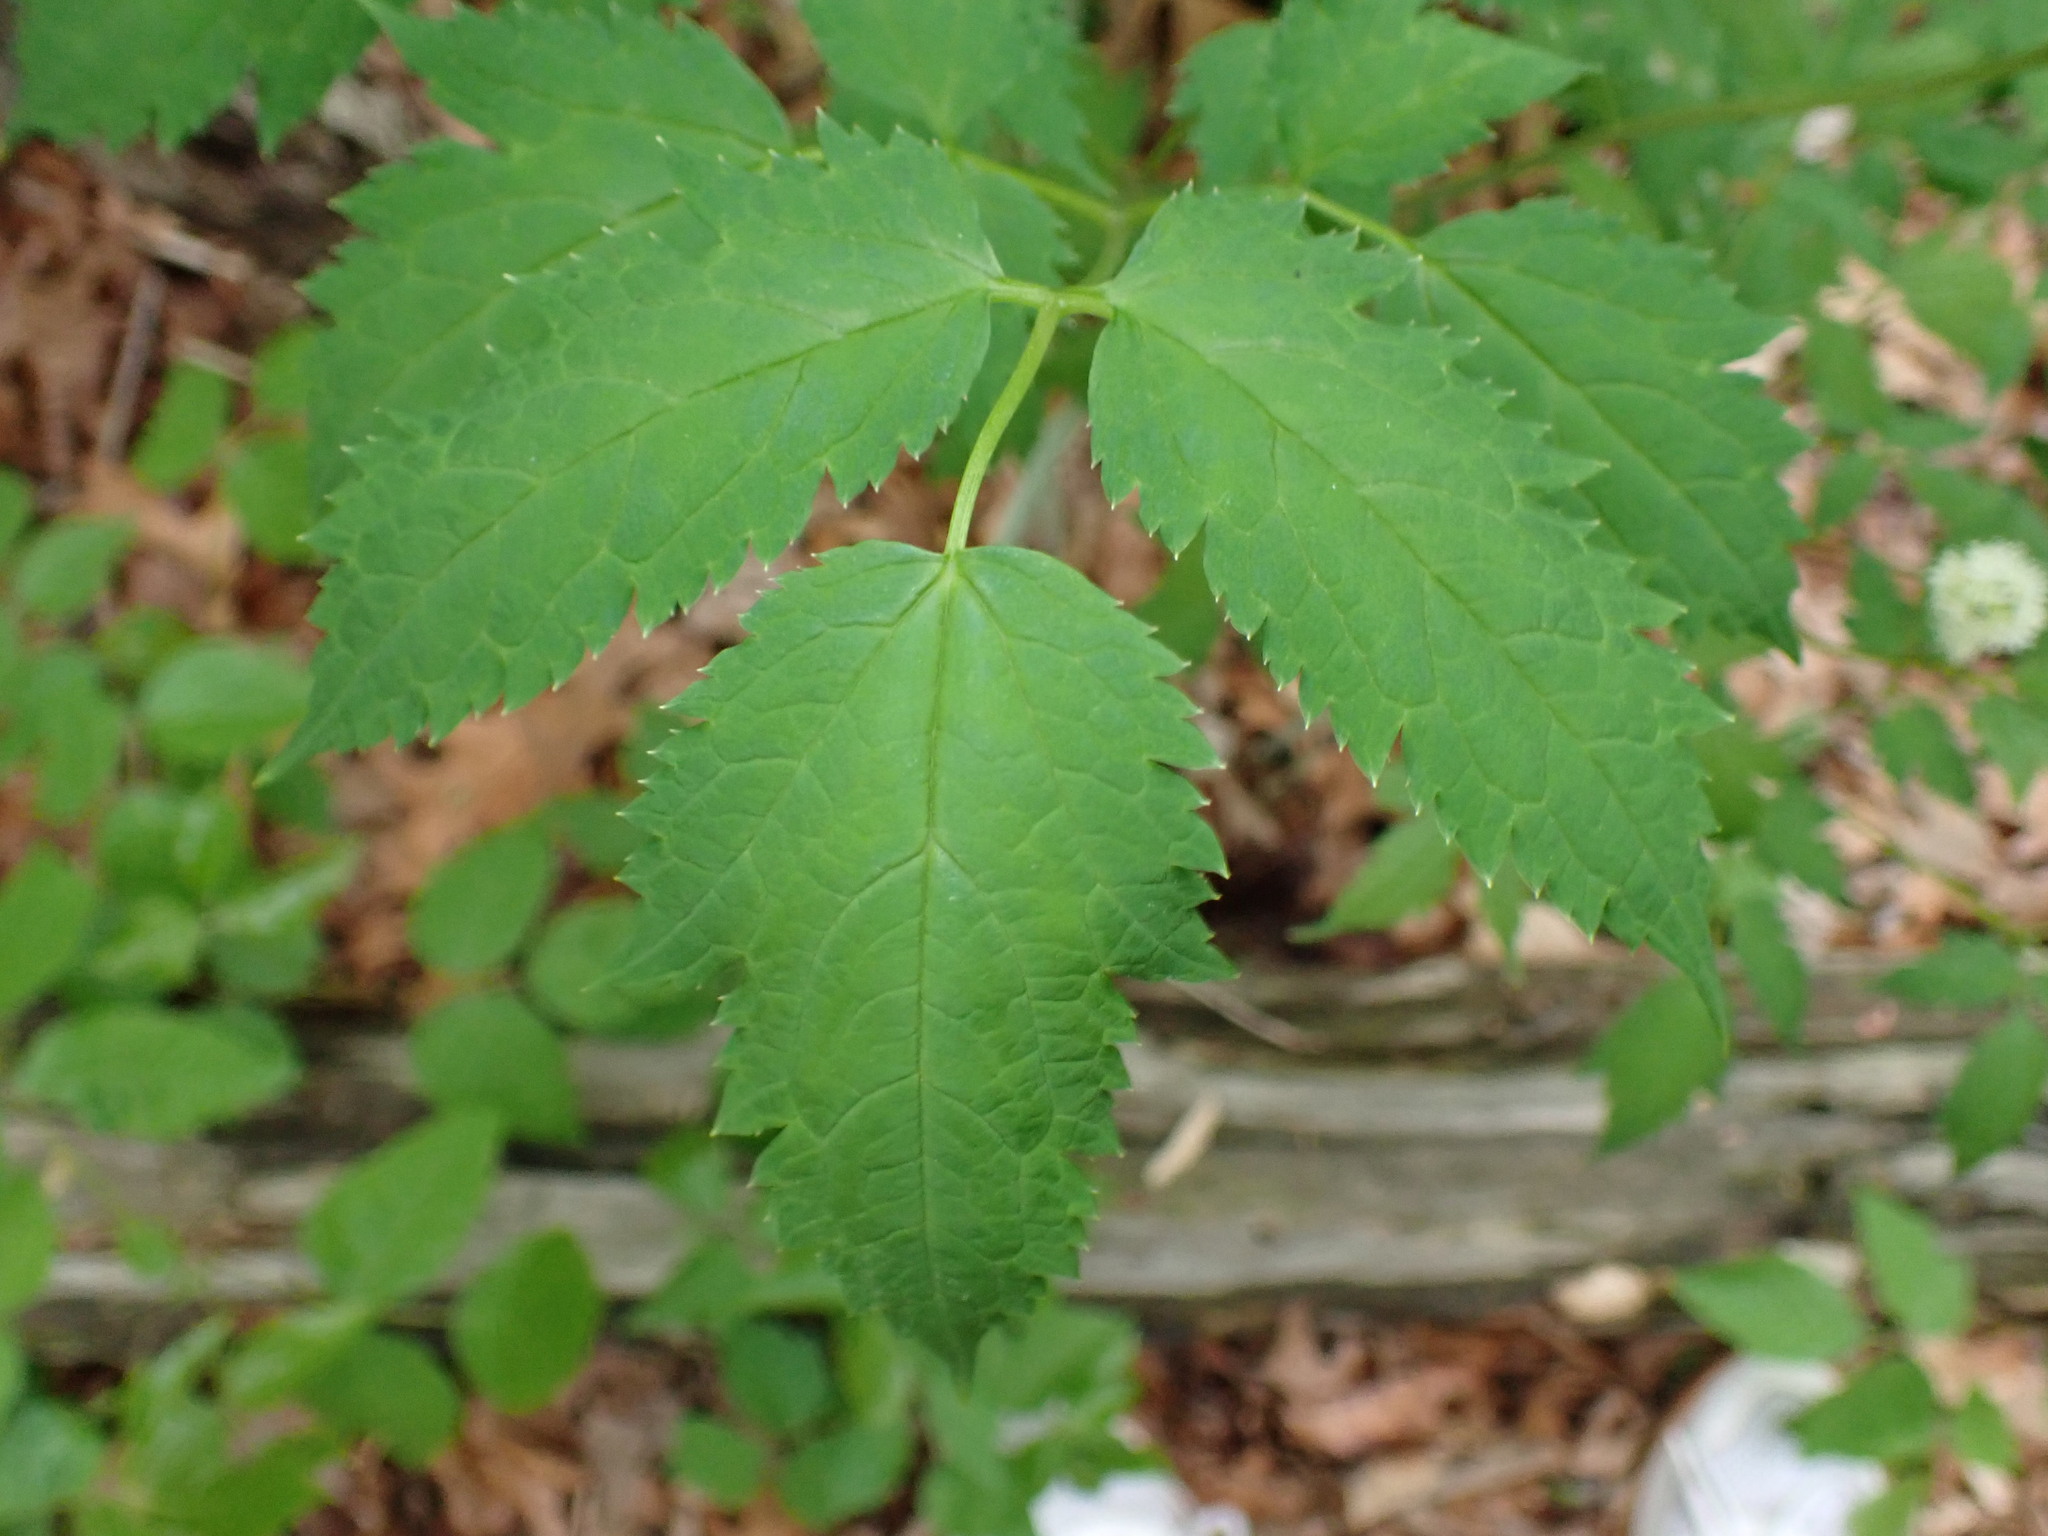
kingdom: Plantae
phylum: Tracheophyta
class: Magnoliopsida
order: Ranunculales
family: Ranunculaceae
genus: Actaea
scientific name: Actaea racemosa
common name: Black cohosh
